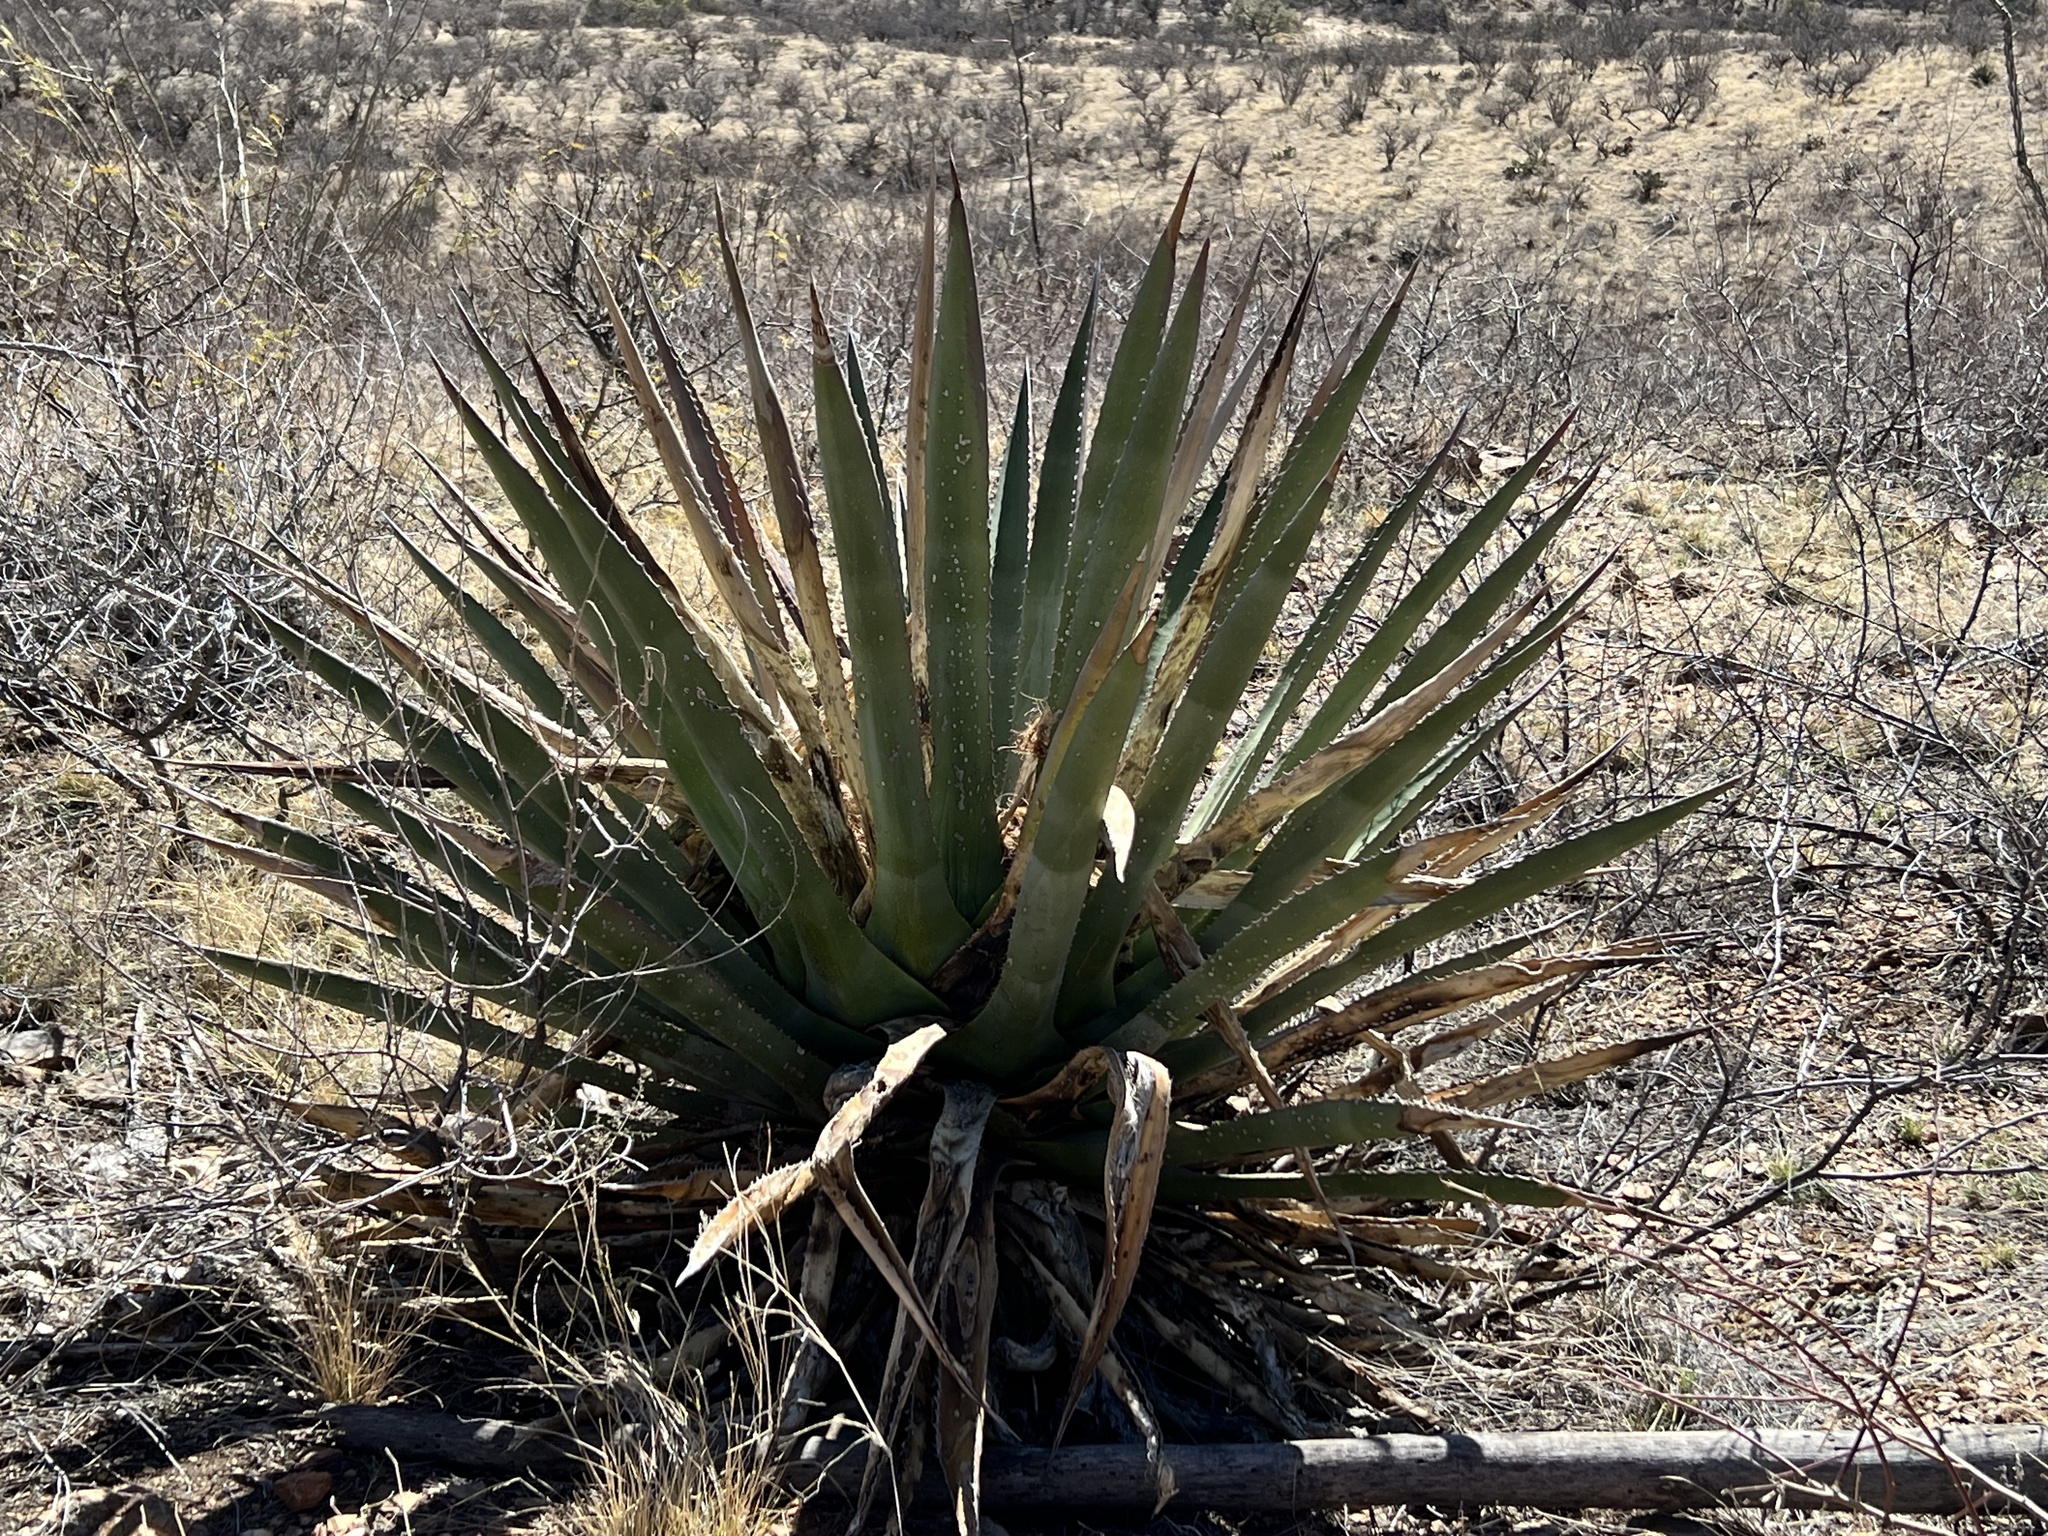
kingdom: Plantae
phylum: Tracheophyta
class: Liliopsida
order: Asparagales
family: Asparagaceae
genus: Agave
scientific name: Agave palmeri
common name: Palmer agave
